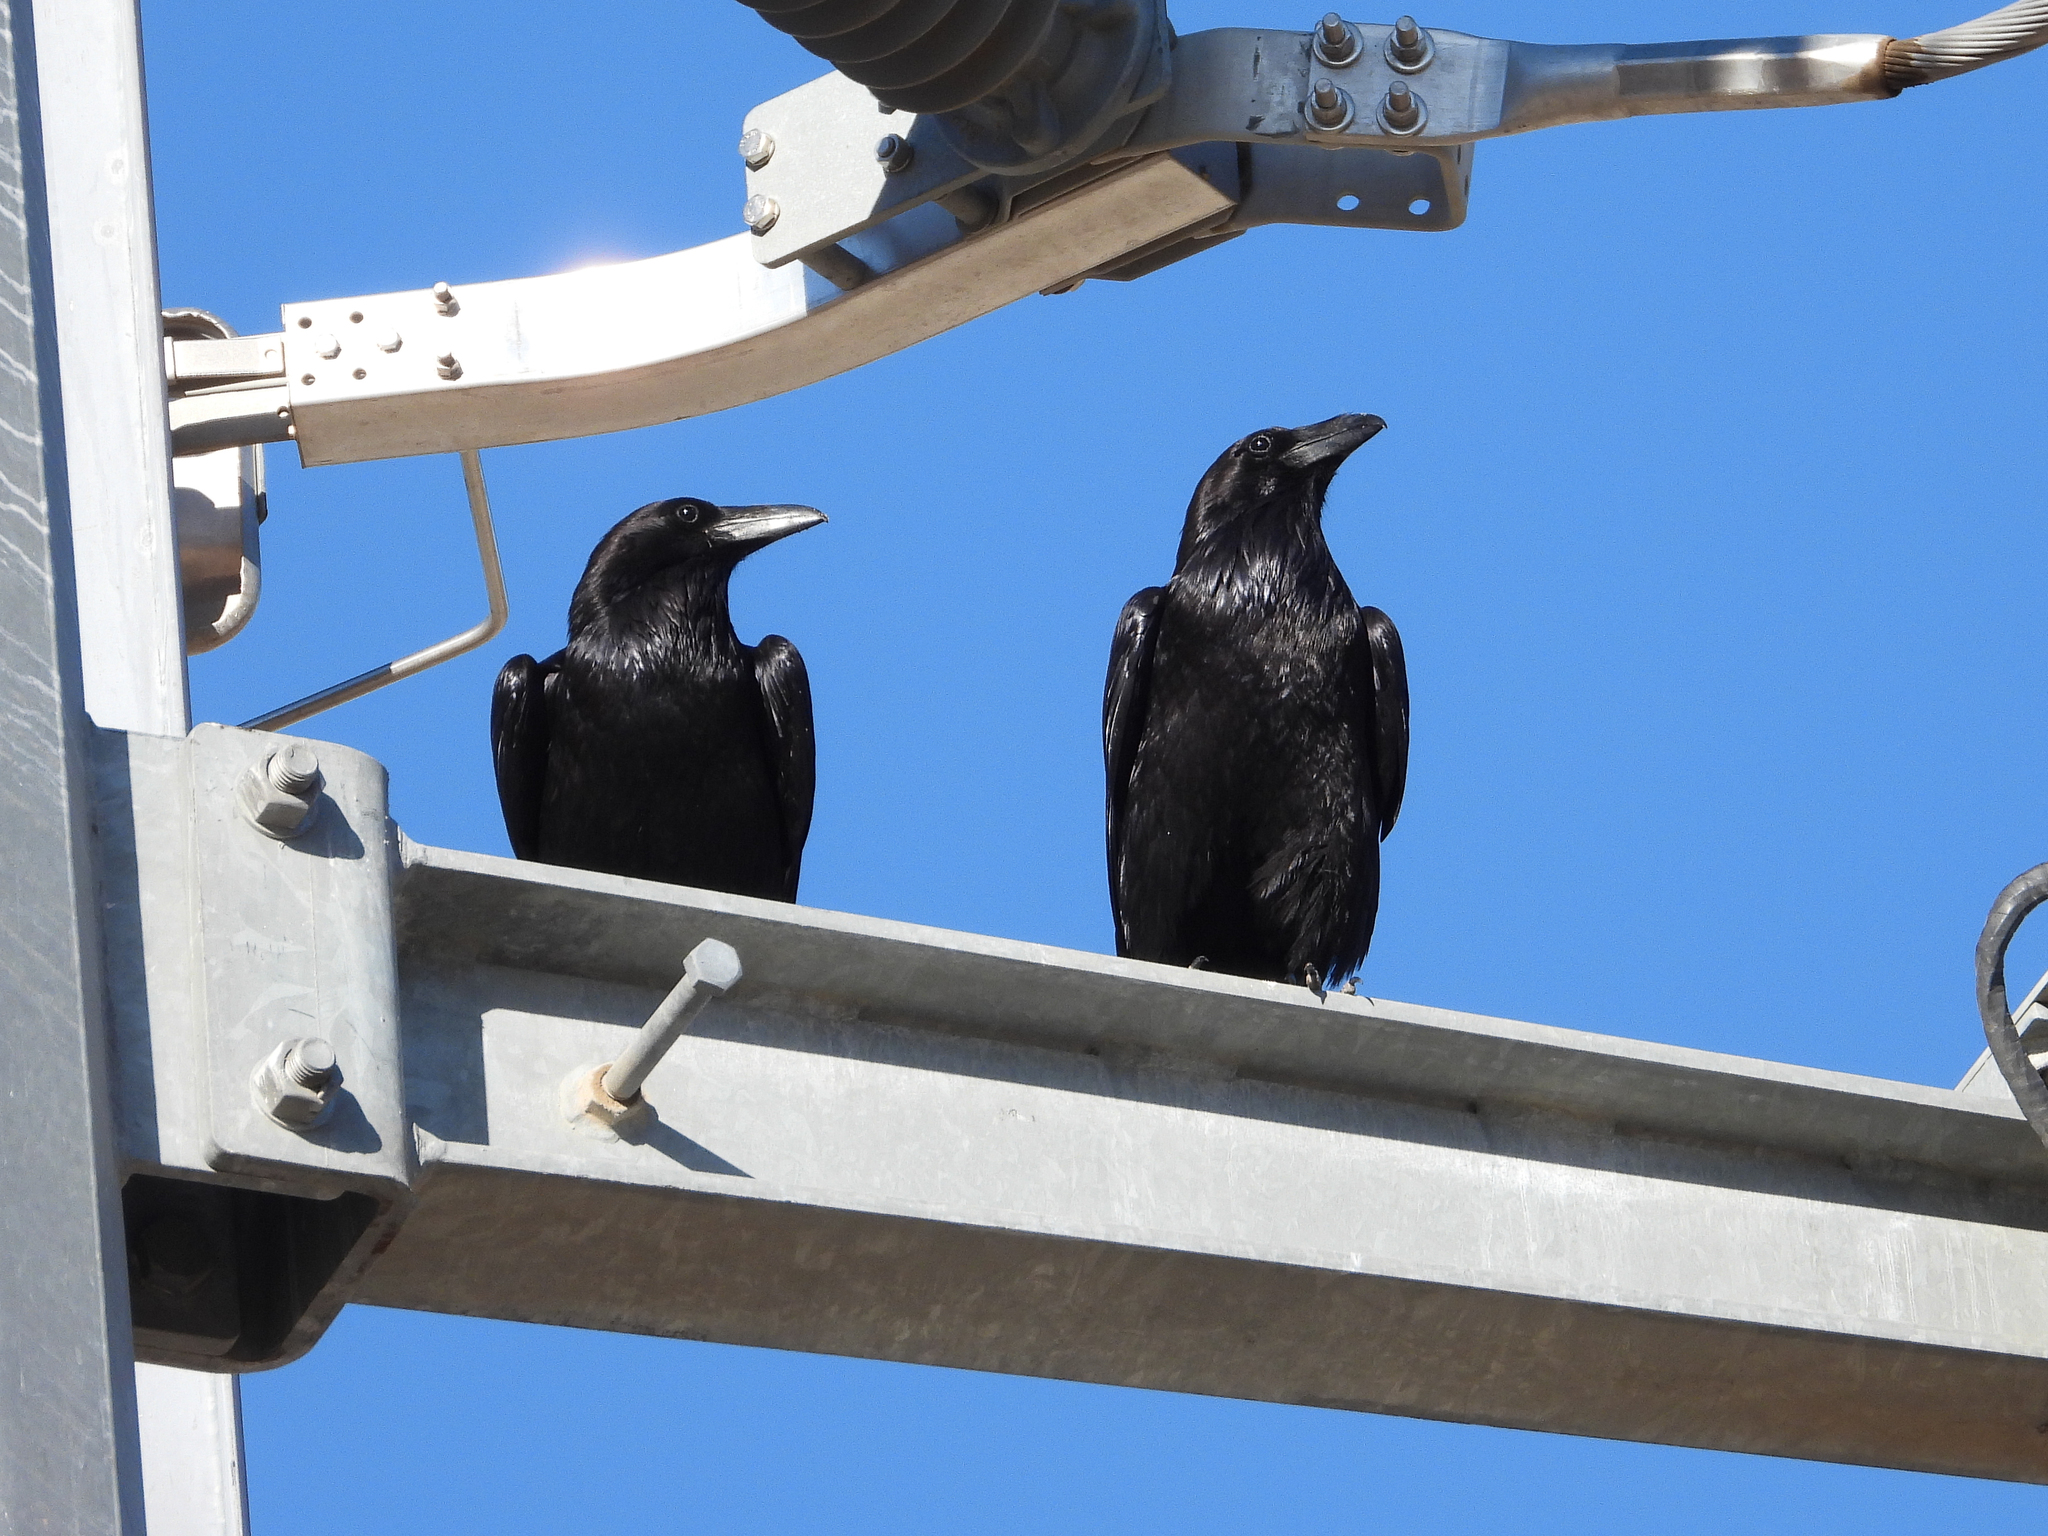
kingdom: Animalia
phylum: Chordata
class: Aves
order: Passeriformes
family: Corvidae
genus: Corvus
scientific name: Corvus corax
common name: Common raven
